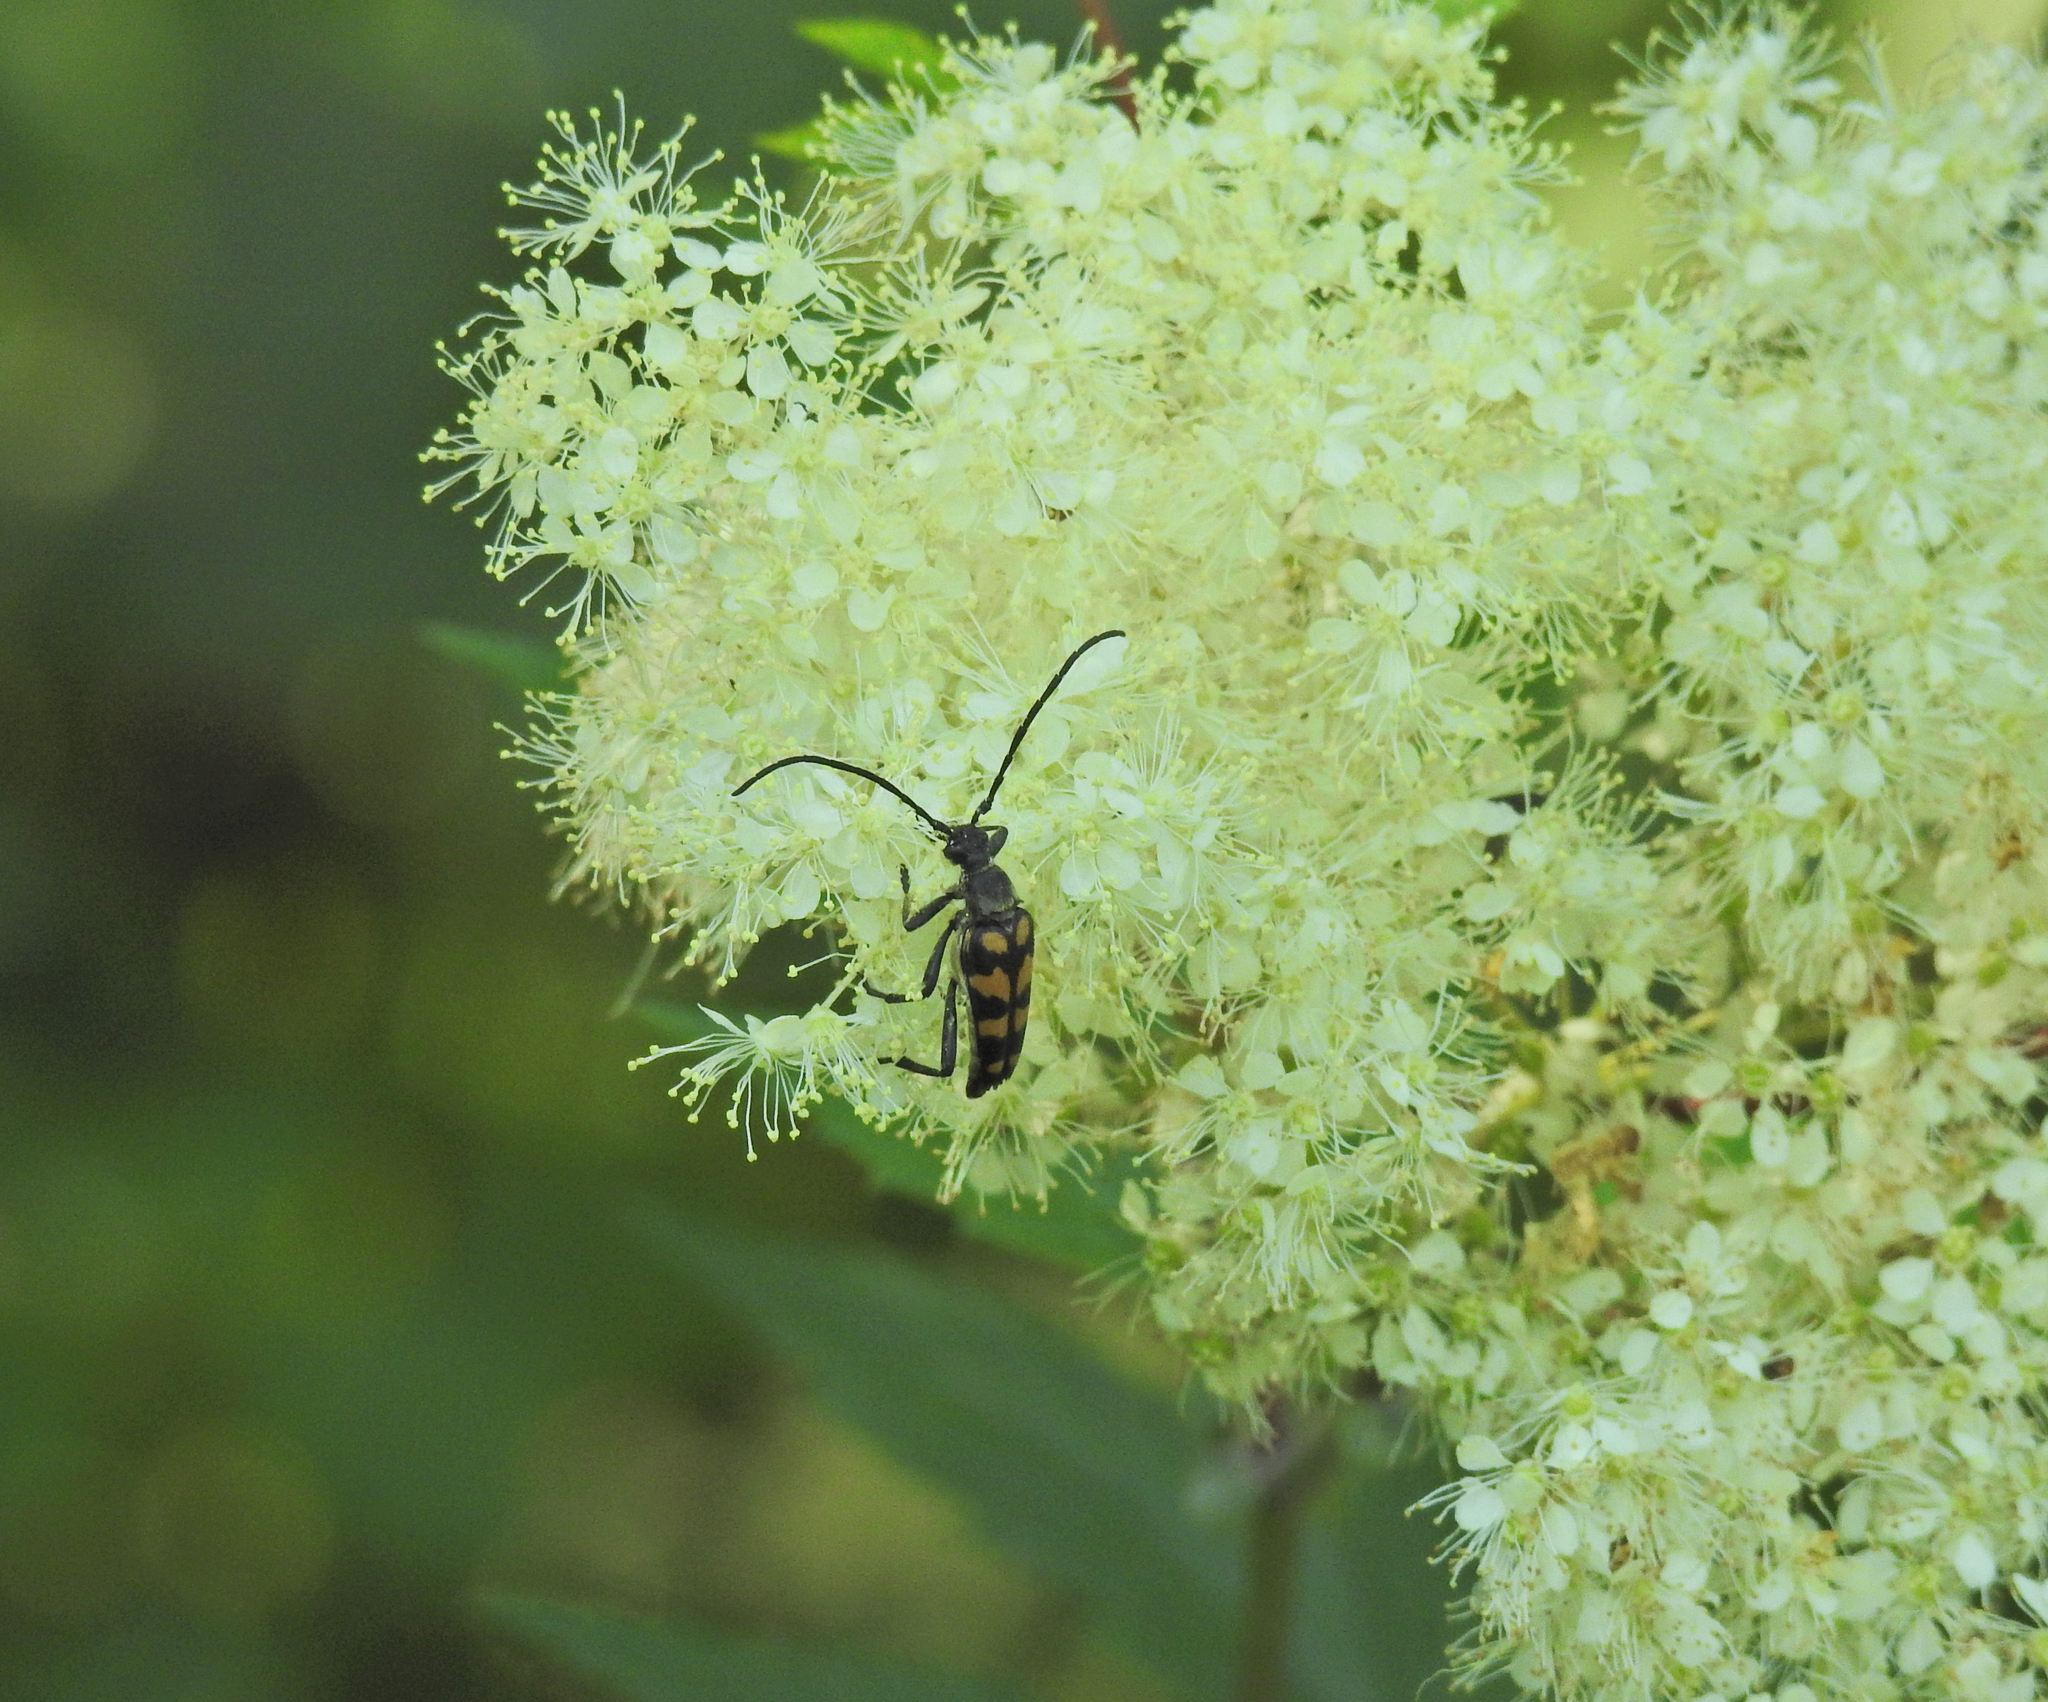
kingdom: Animalia
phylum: Arthropoda
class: Insecta
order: Coleoptera
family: Cerambycidae
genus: Leptura
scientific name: Leptura quadrifasciata
